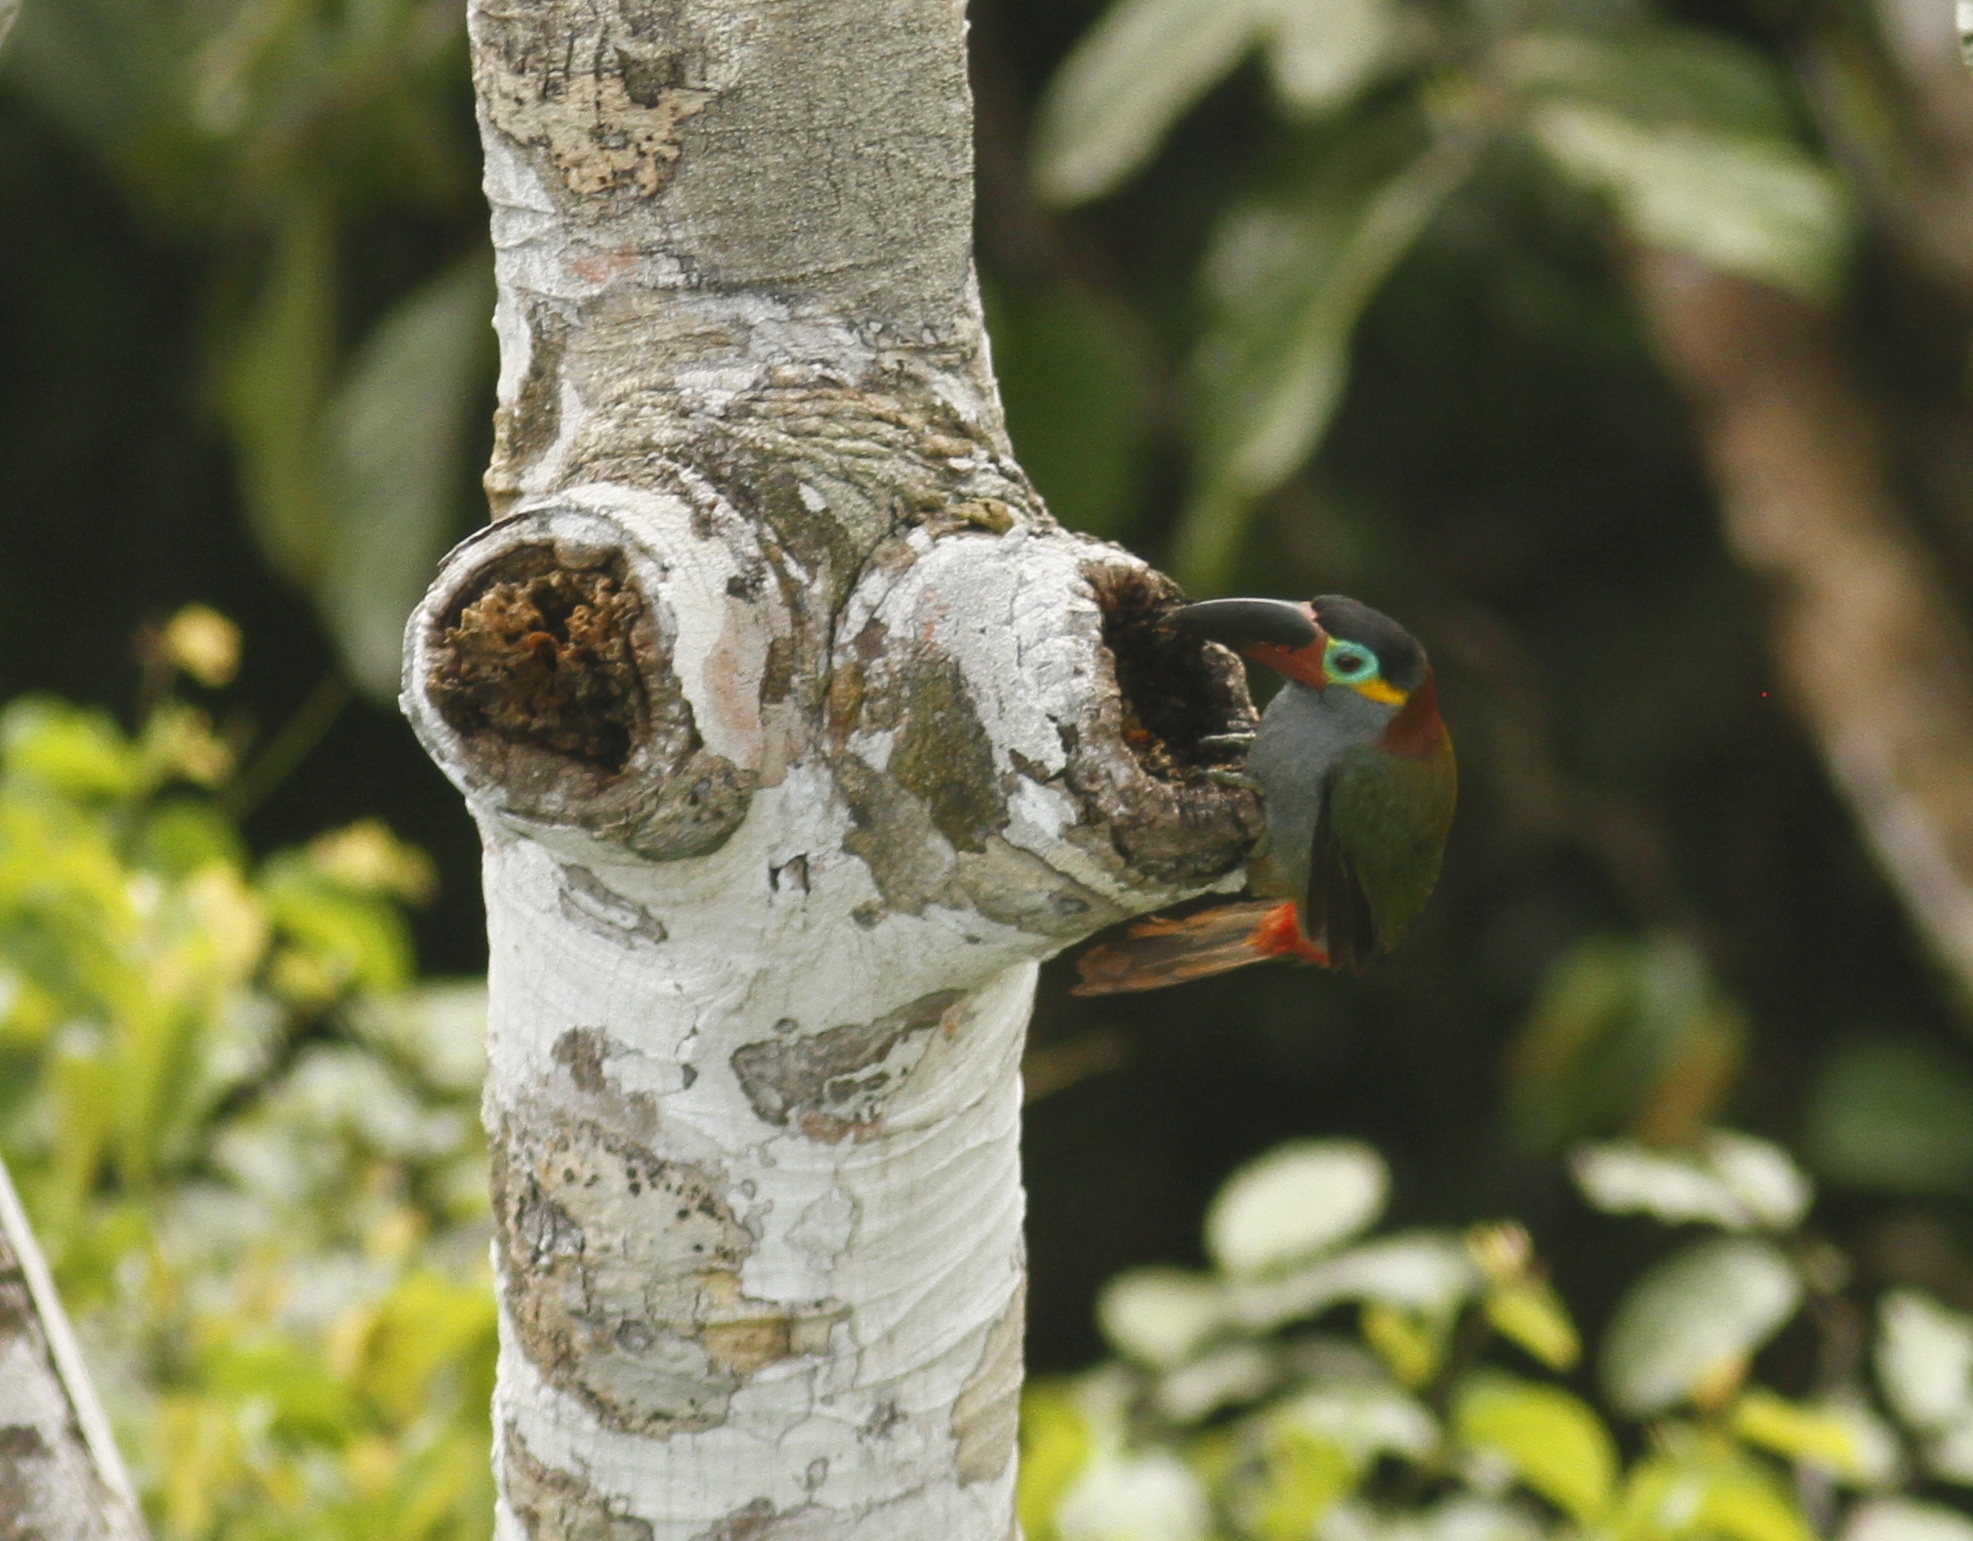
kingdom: Animalia
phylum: Chordata
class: Aves
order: Piciformes
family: Ramphastidae
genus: Selenidera
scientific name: Selenidera piperivora
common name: Guianan toucanet
